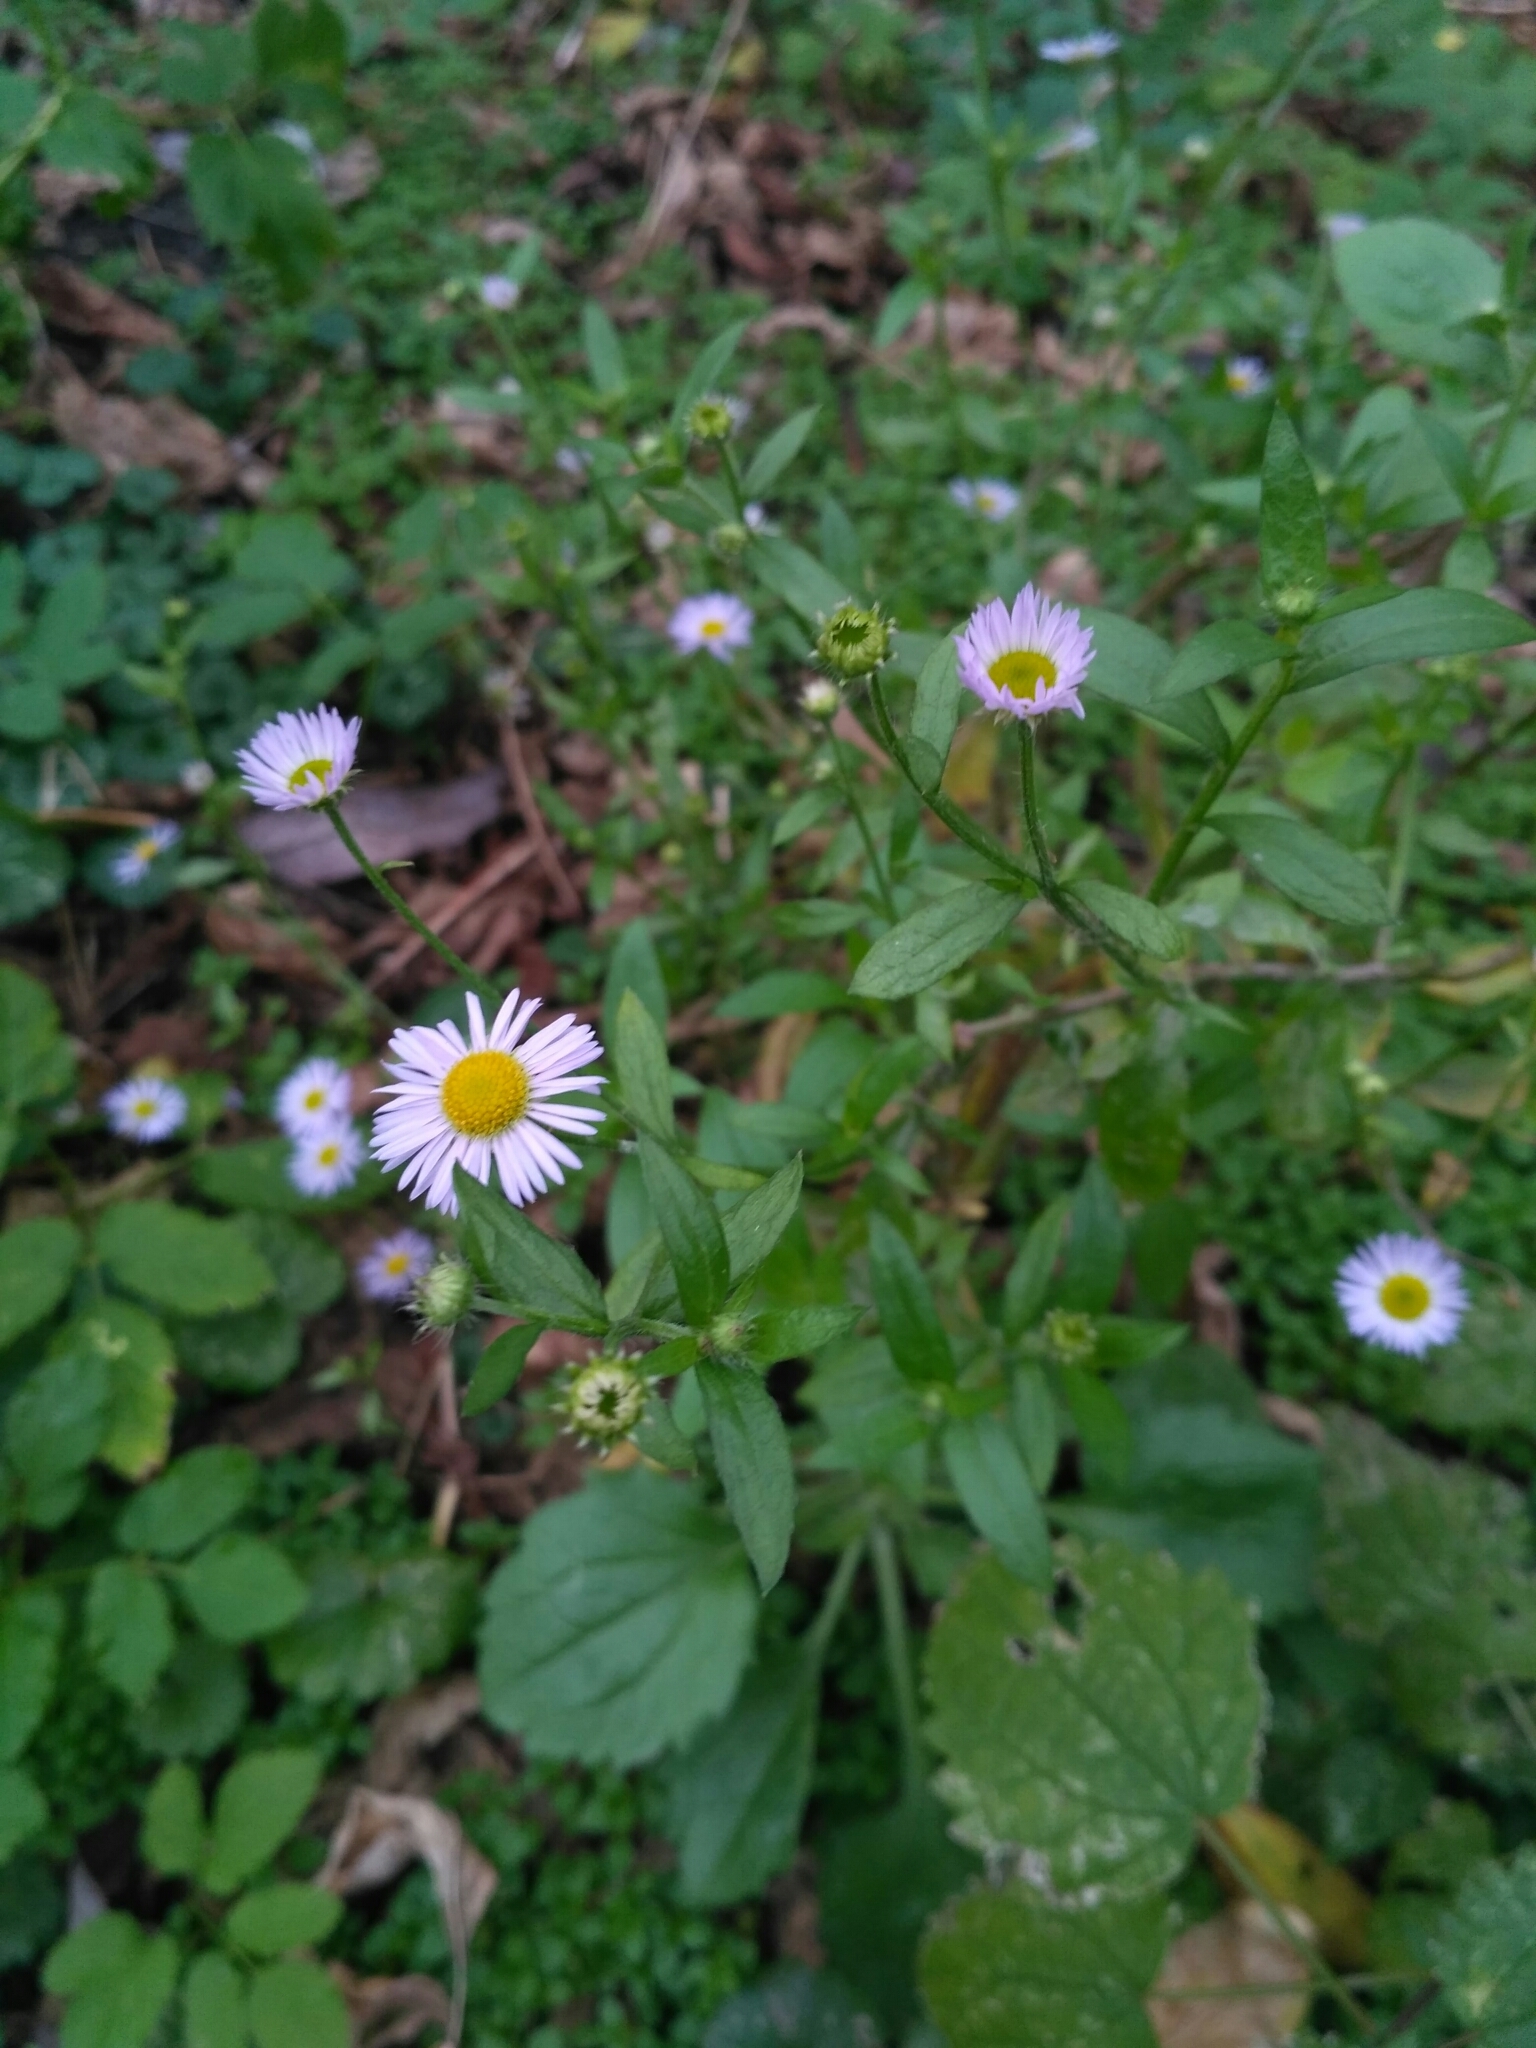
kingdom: Plantae
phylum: Tracheophyta
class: Magnoliopsida
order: Asterales
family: Asteraceae
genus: Erigeron
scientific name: Erigeron annuus
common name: Tall fleabane
